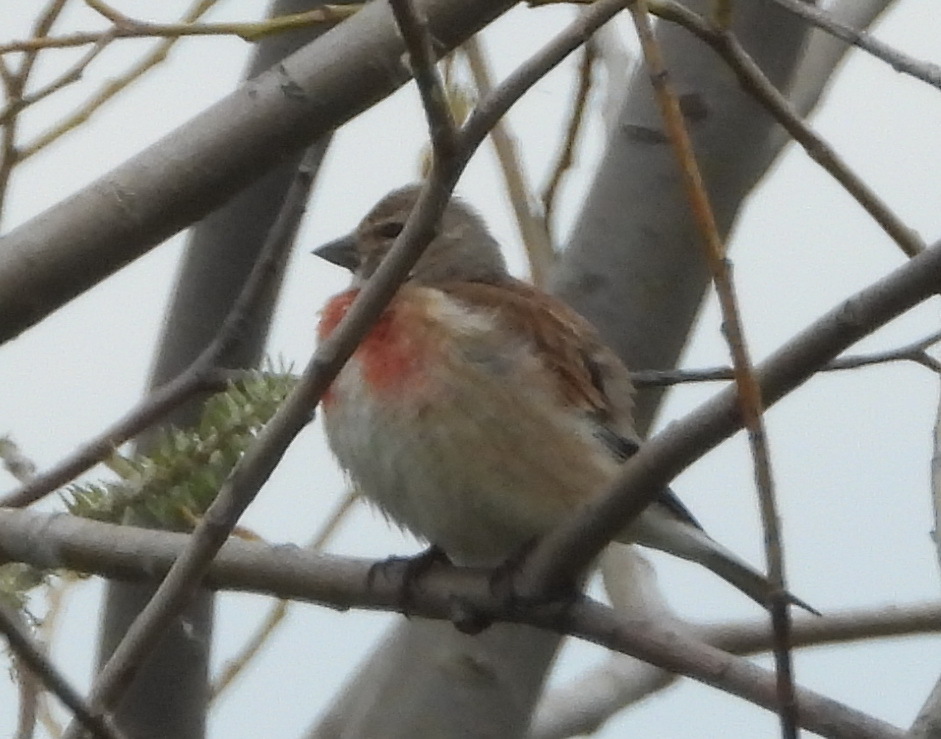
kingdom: Animalia
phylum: Chordata
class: Aves
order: Passeriformes
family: Fringillidae
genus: Linaria
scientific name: Linaria cannabina
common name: Common linnet
